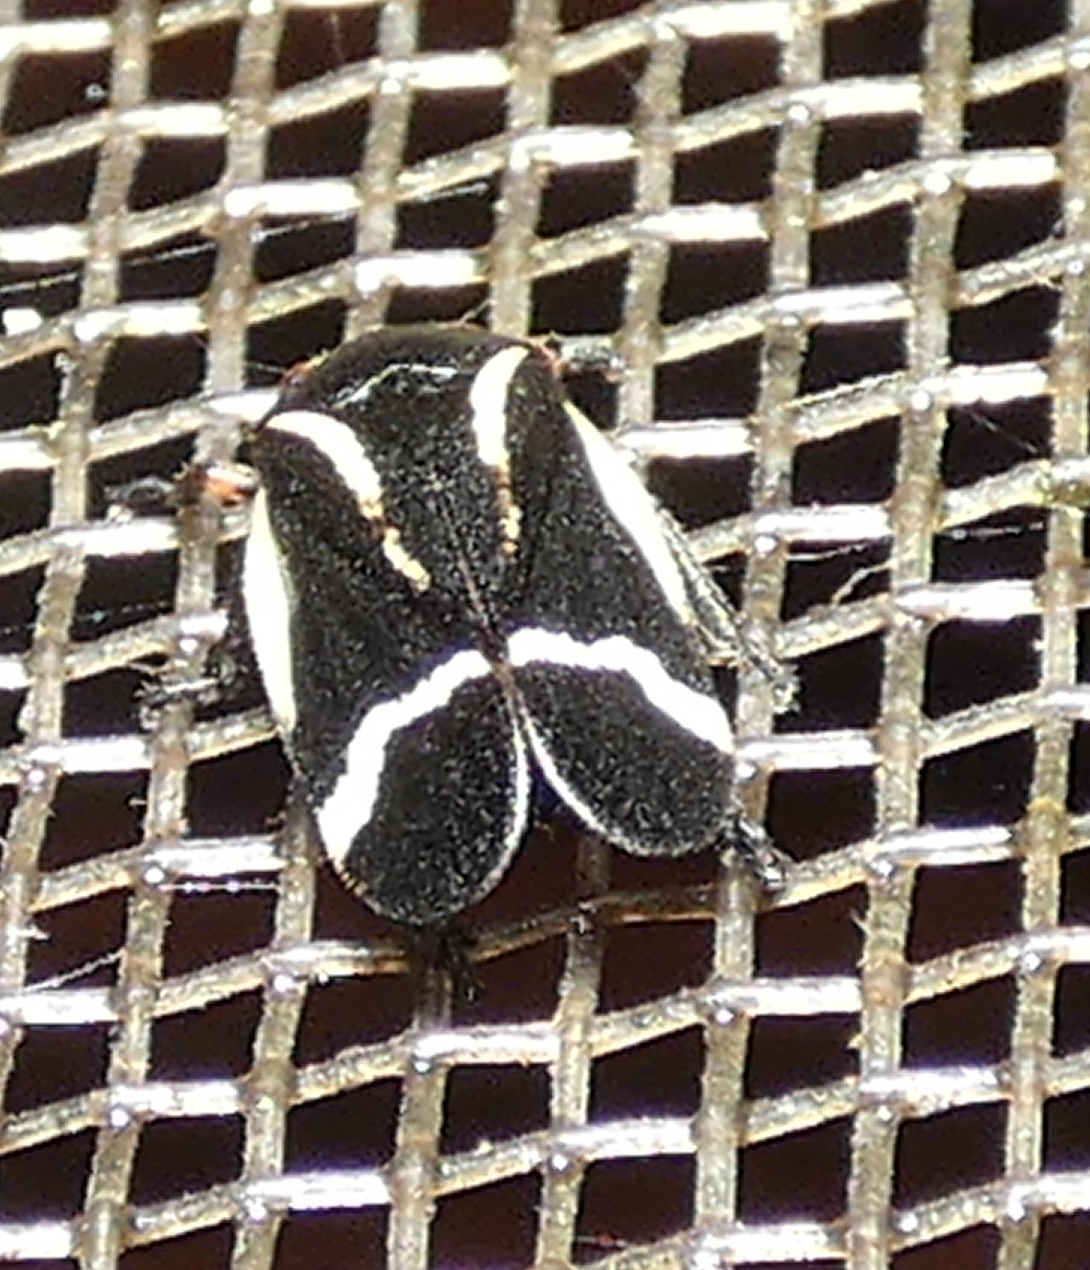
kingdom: Animalia
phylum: Arthropoda
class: Insecta
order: Hemiptera
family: Cercopidae
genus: Notozulia
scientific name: Notozulia entreriana
